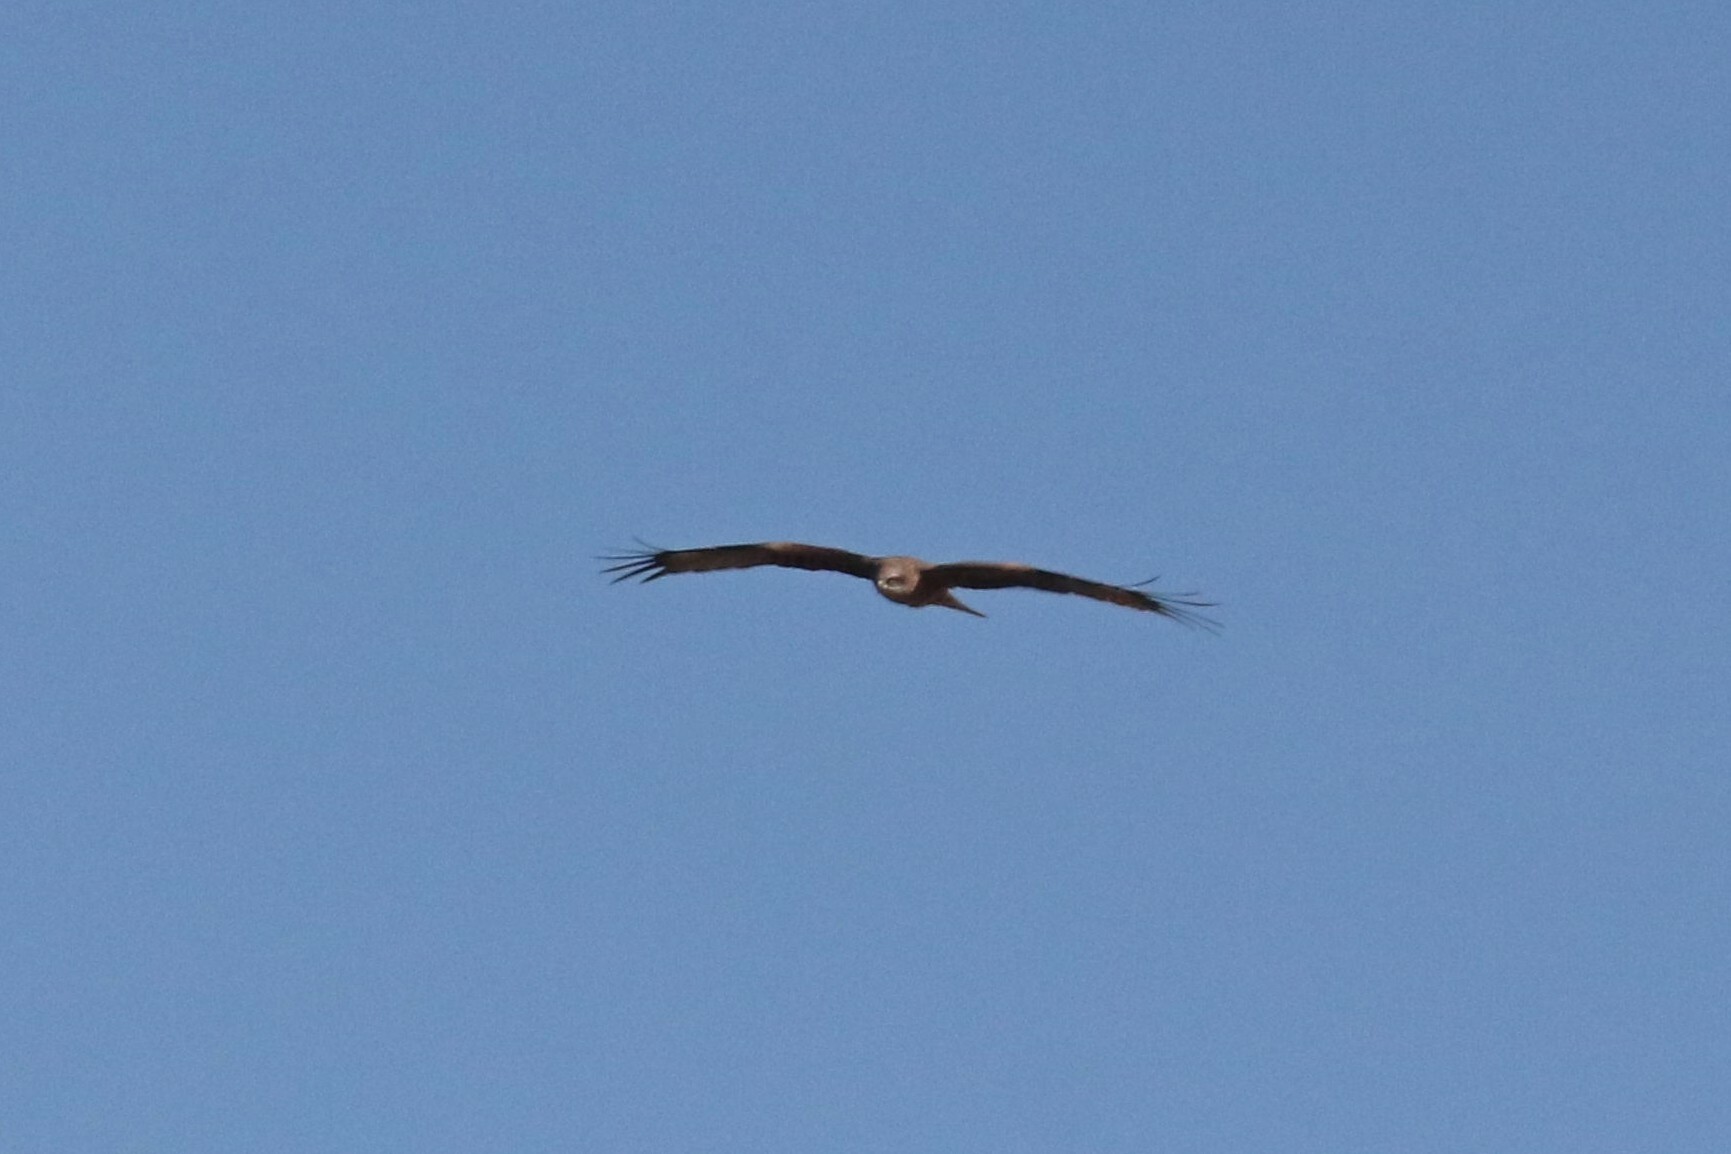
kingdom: Animalia
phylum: Chordata
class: Aves
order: Accipitriformes
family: Accipitridae
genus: Milvus
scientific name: Milvus migrans
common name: Black kite
